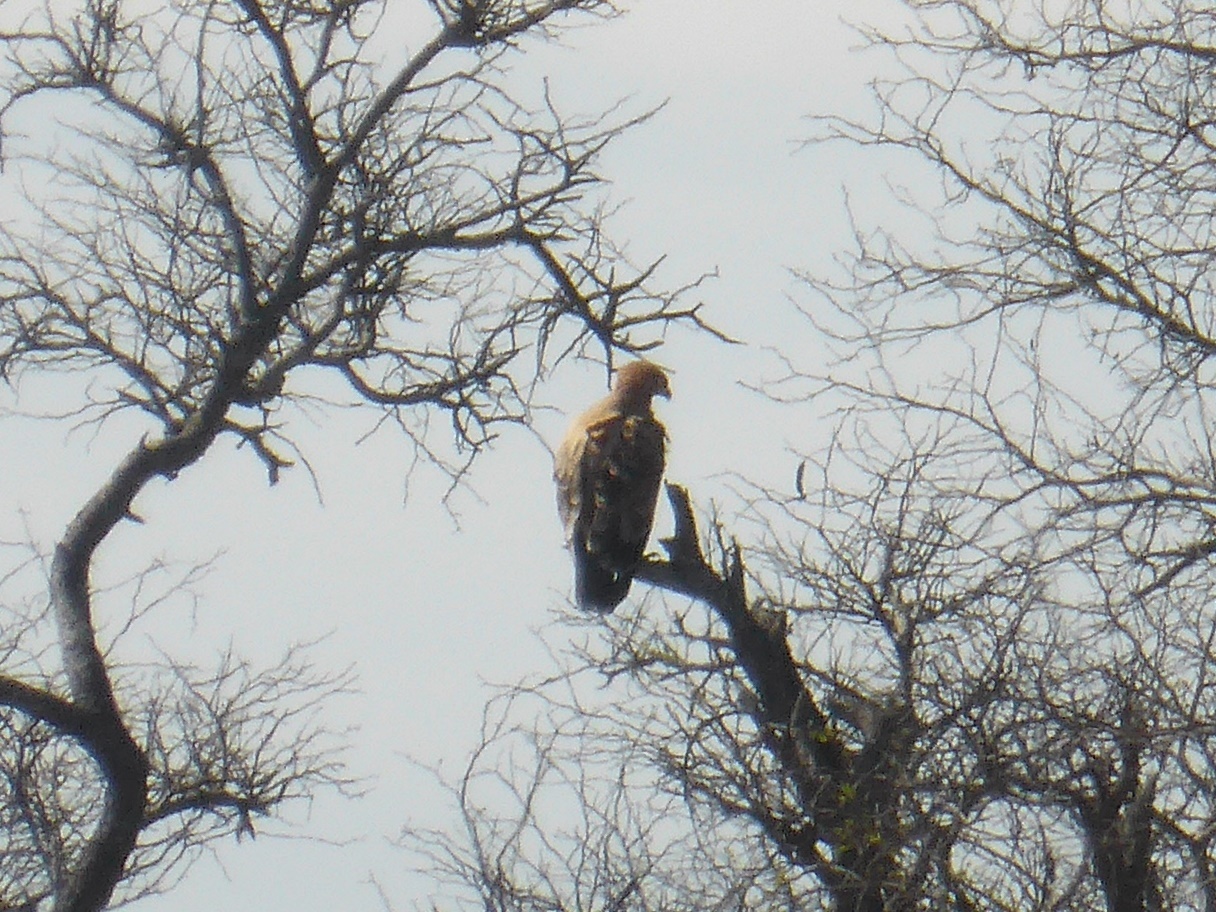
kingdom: Animalia
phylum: Chordata
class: Aves
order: Accipitriformes
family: Accipitridae
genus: Aquila
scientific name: Aquila rapax
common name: Tawny eagle
